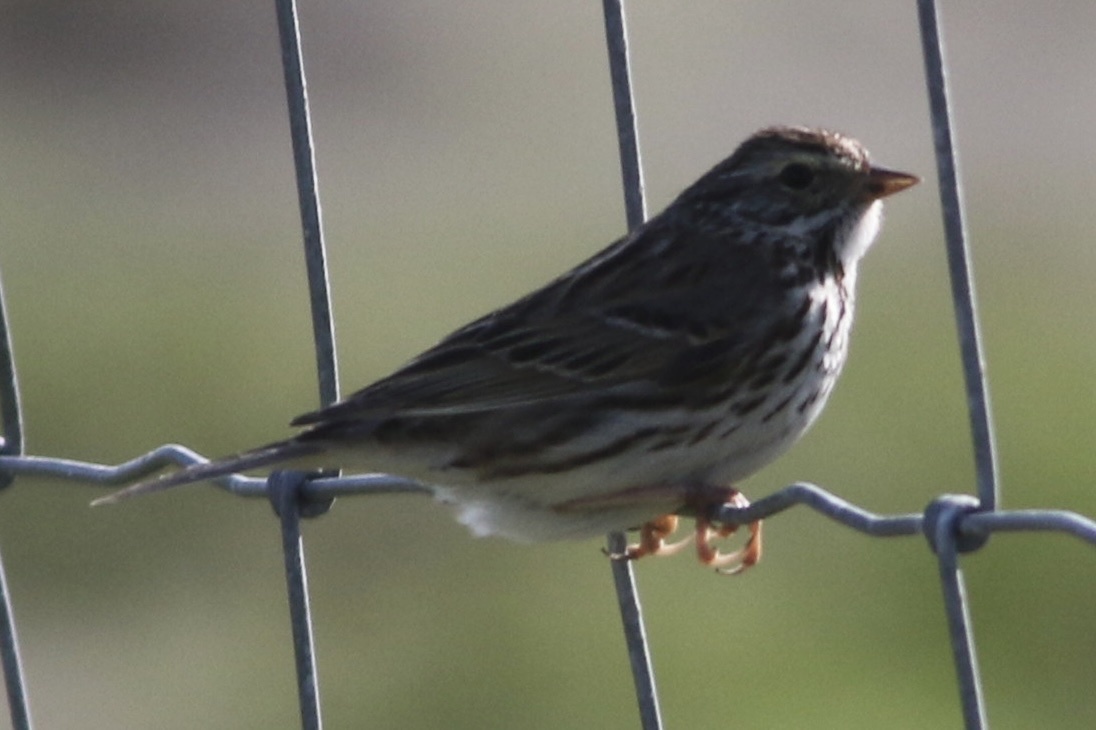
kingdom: Animalia
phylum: Chordata
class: Aves
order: Passeriformes
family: Passerellidae
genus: Passerculus
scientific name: Passerculus sandwichensis
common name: Savannah sparrow
